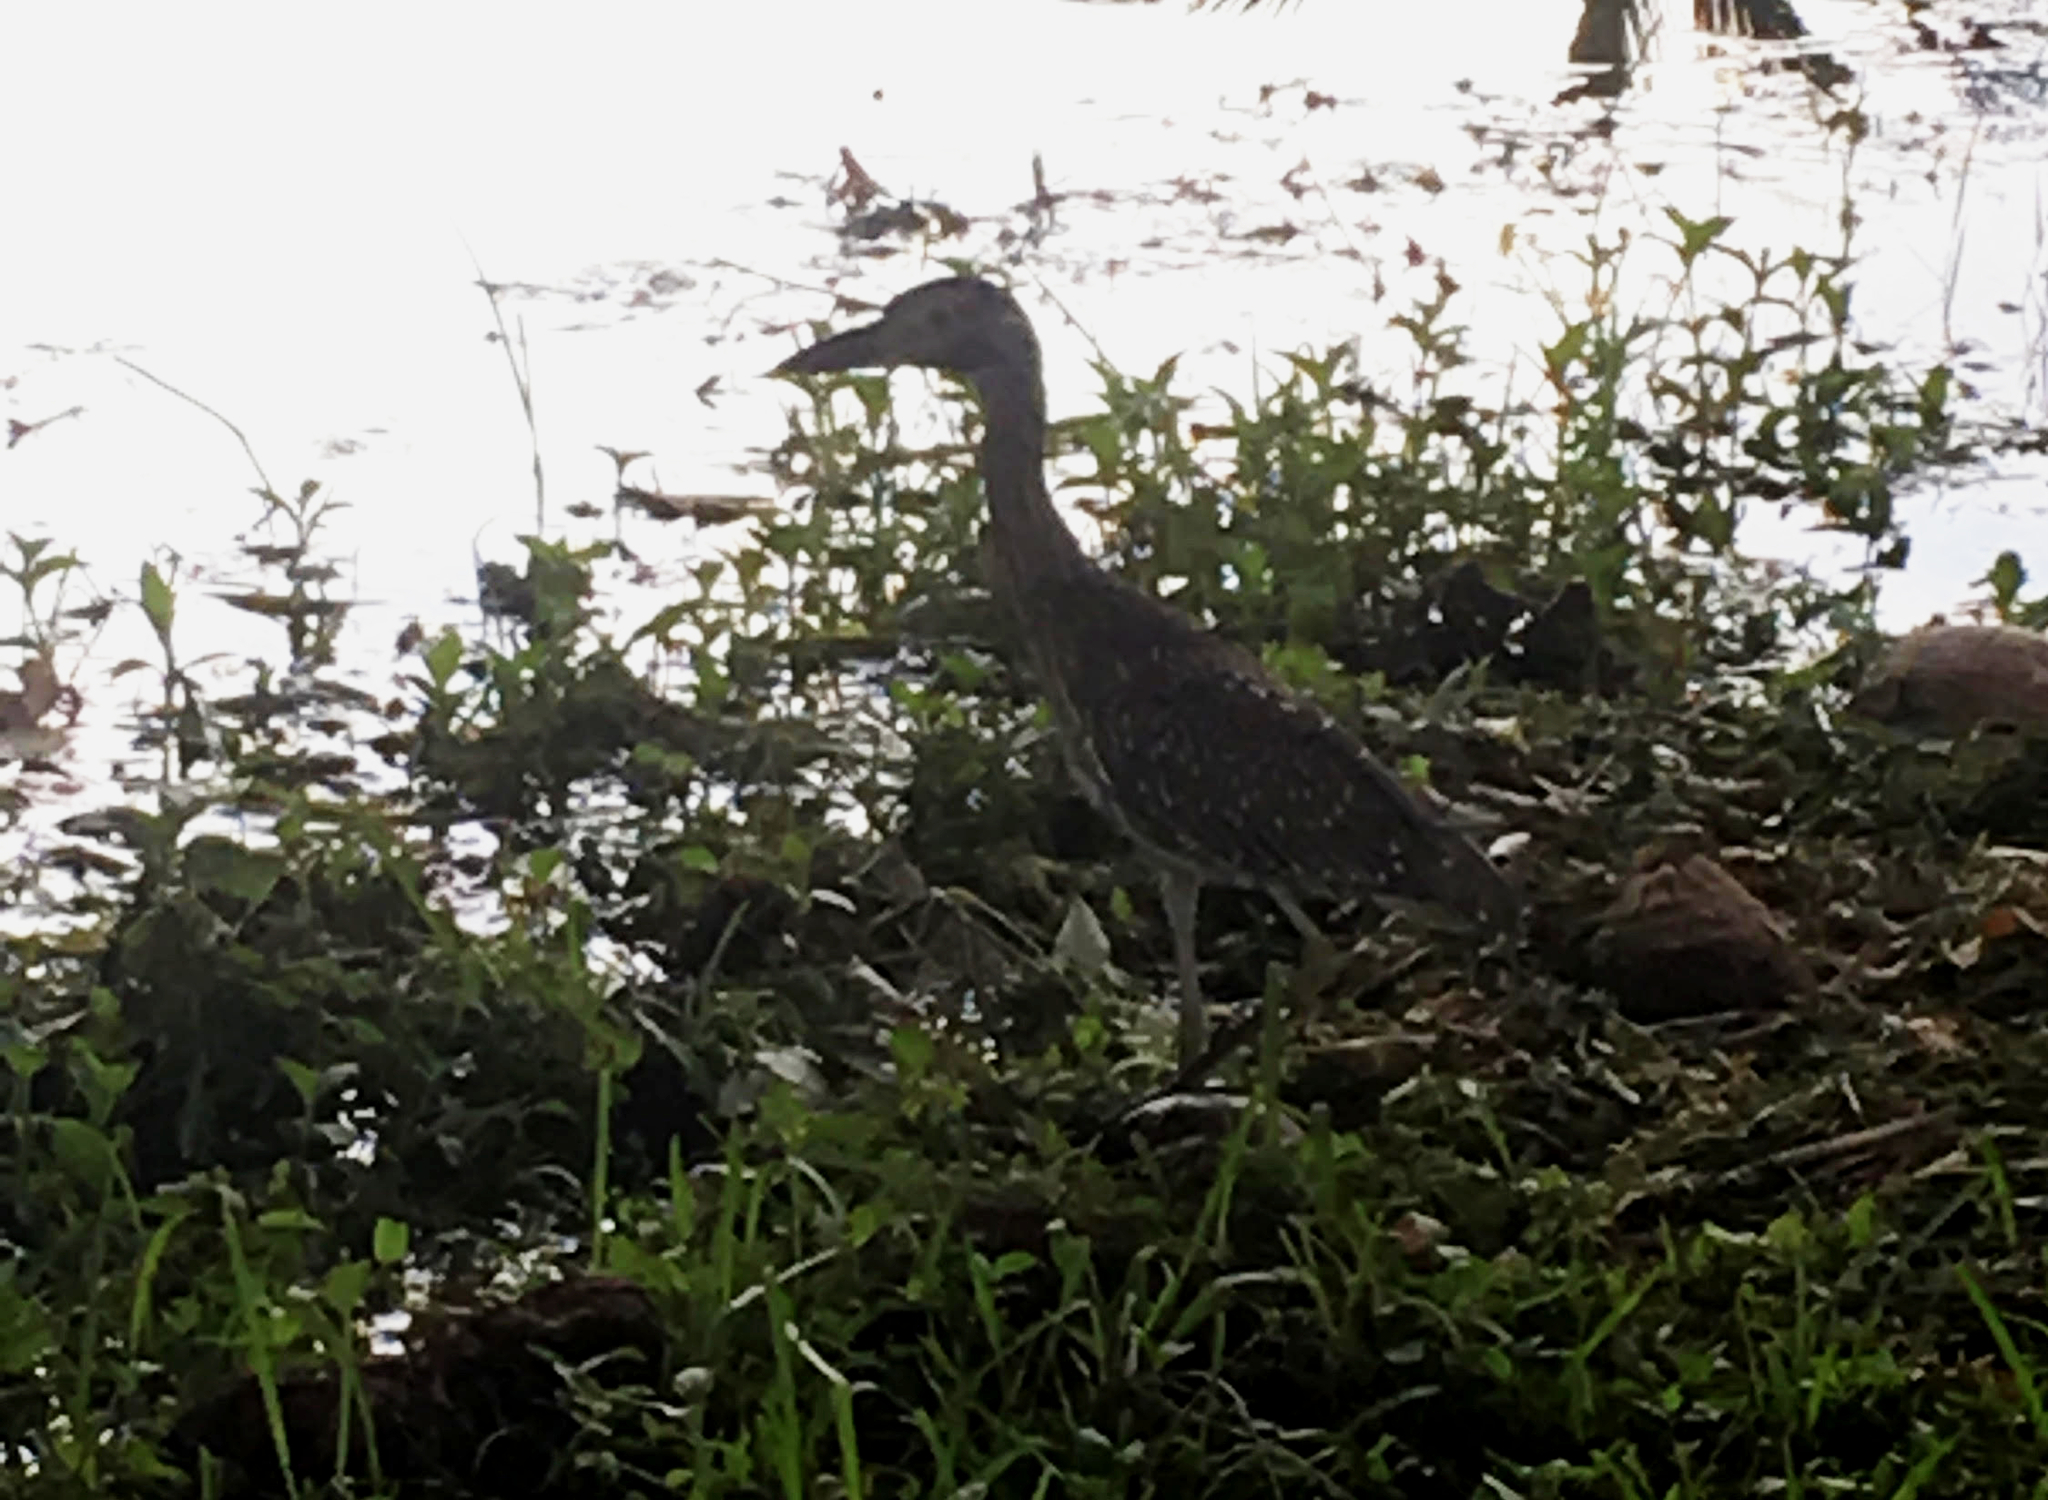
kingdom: Animalia
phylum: Chordata
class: Aves
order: Pelecaniformes
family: Ardeidae
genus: Nyctanassa
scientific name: Nyctanassa violacea
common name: Yellow-crowned night heron
